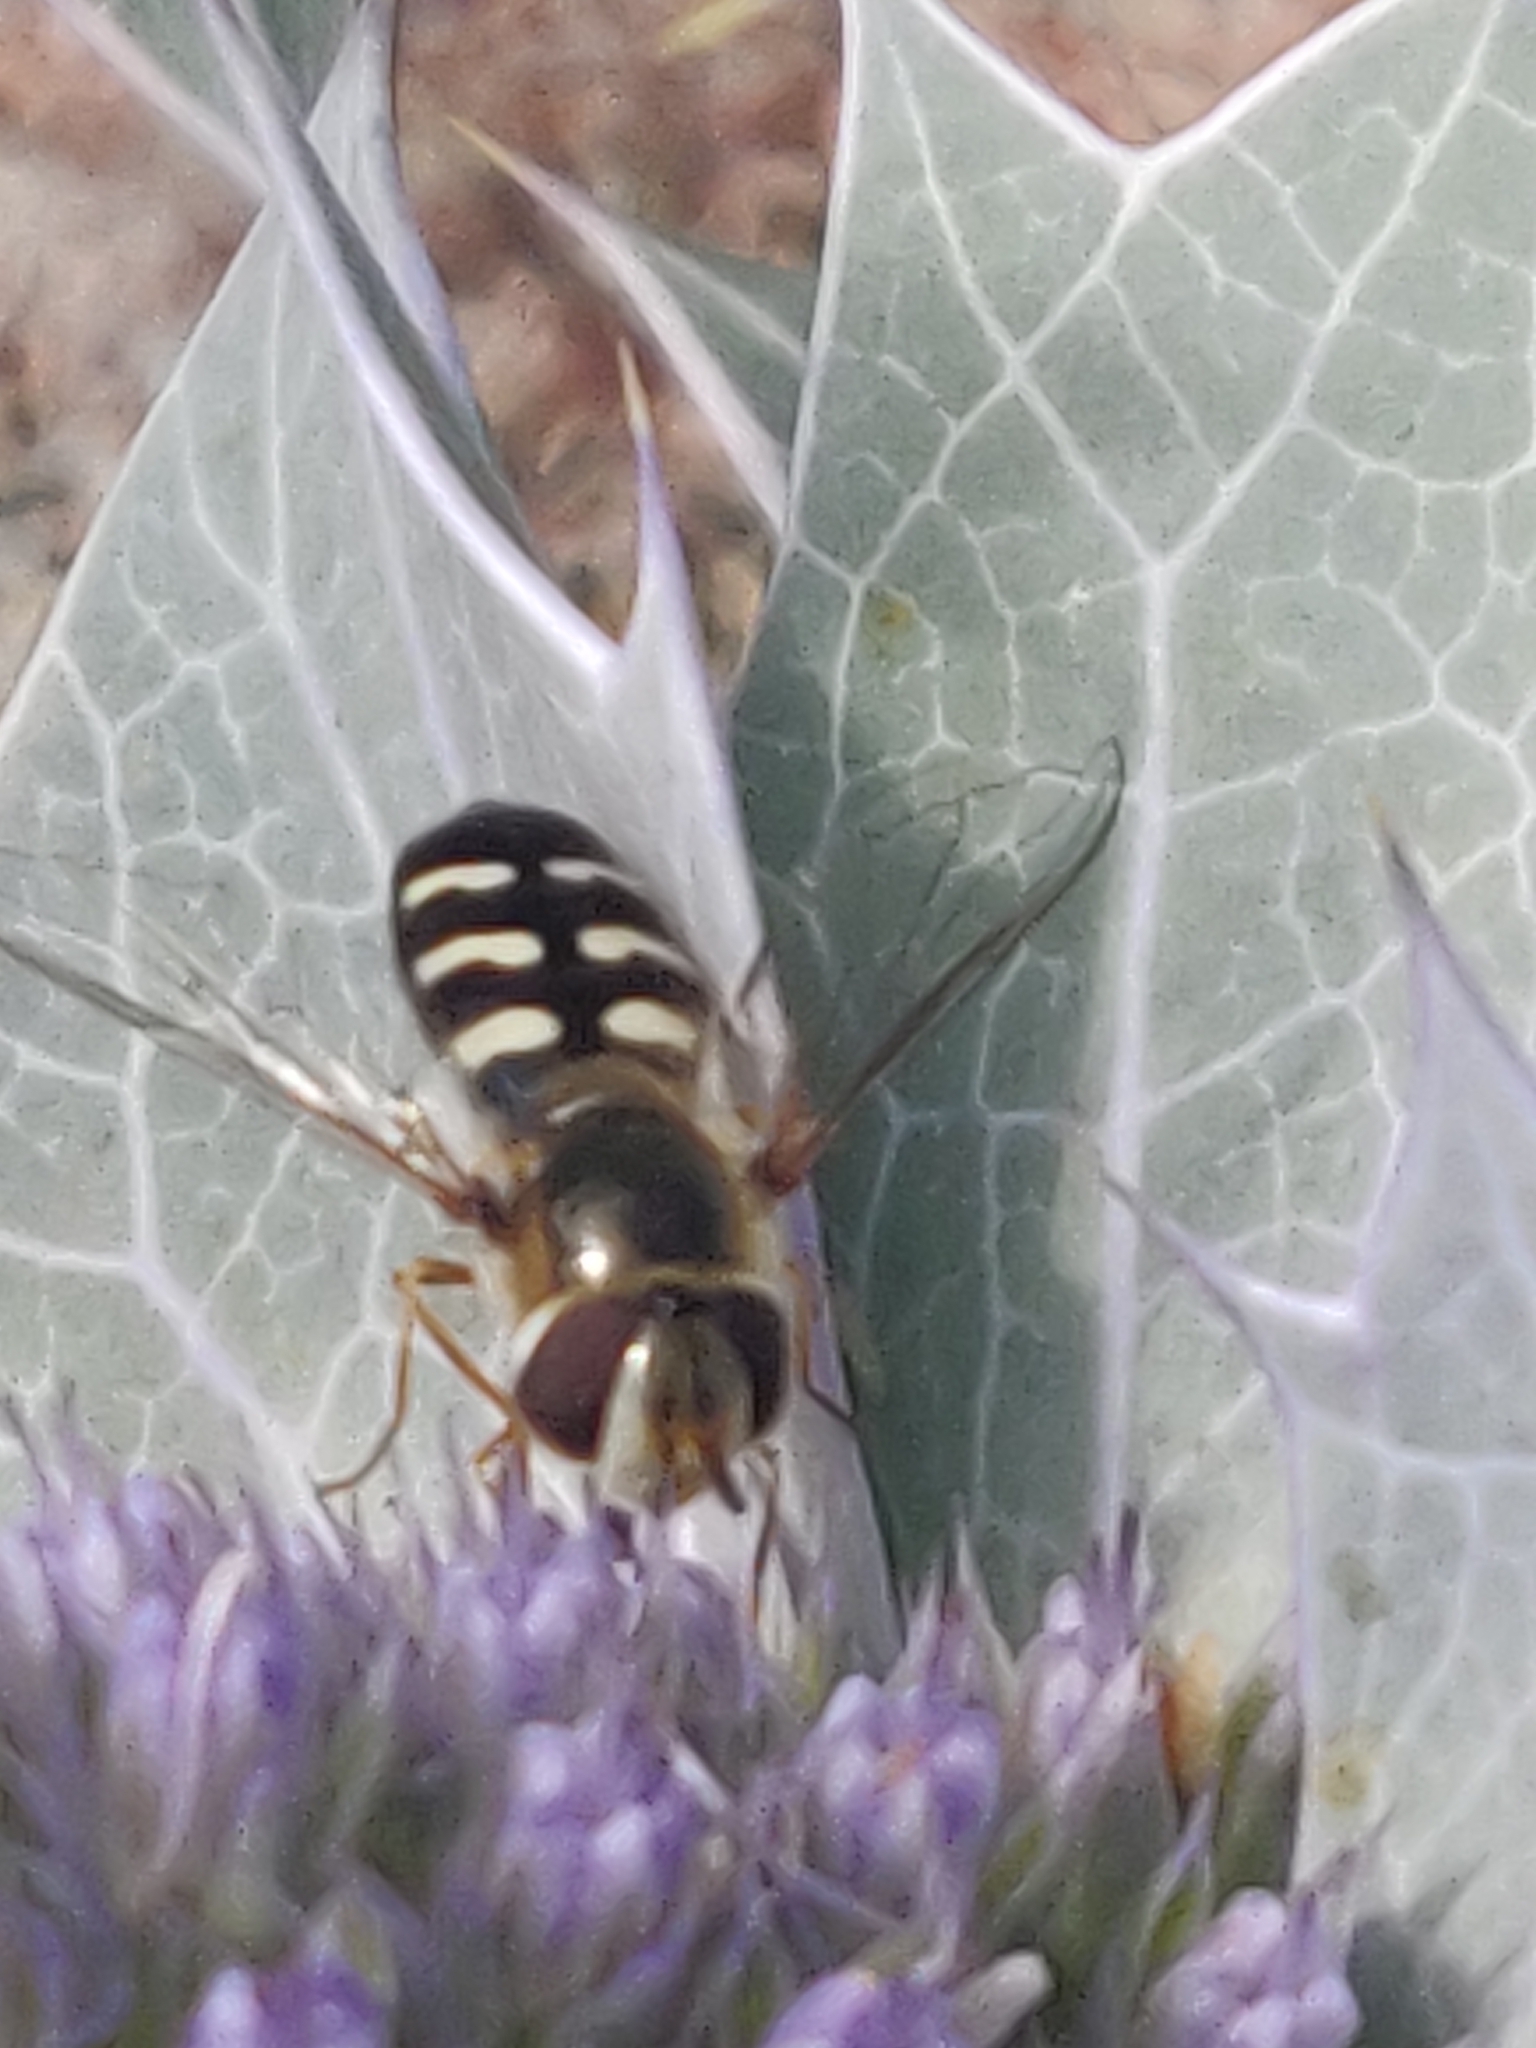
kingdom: Animalia
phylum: Arthropoda
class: Insecta
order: Diptera
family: Syrphidae
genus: Scaeva
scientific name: Scaeva pyrastri
